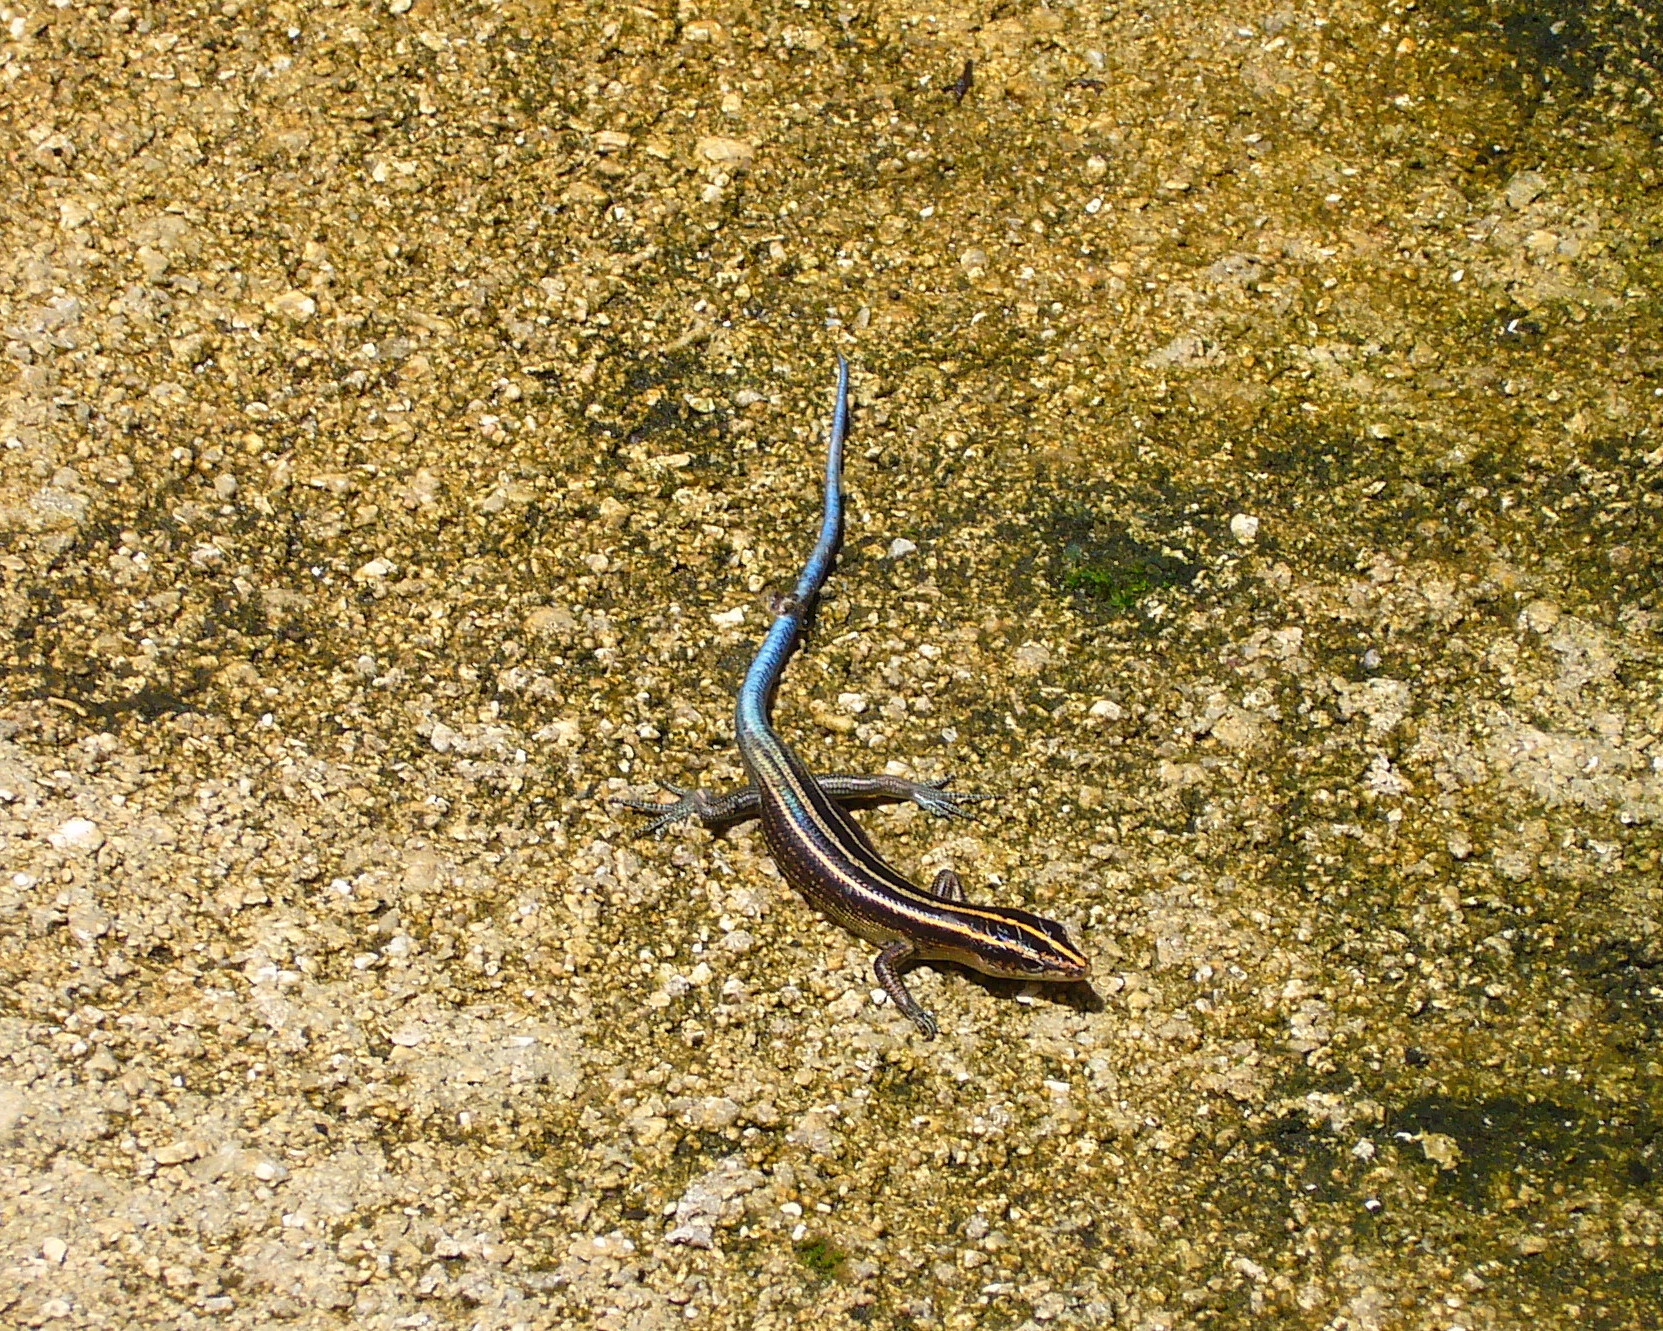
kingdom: Animalia
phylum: Chordata
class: Squamata
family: Scincidae
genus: Emoia
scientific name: Emoia impar
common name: Azure-tailed skink
